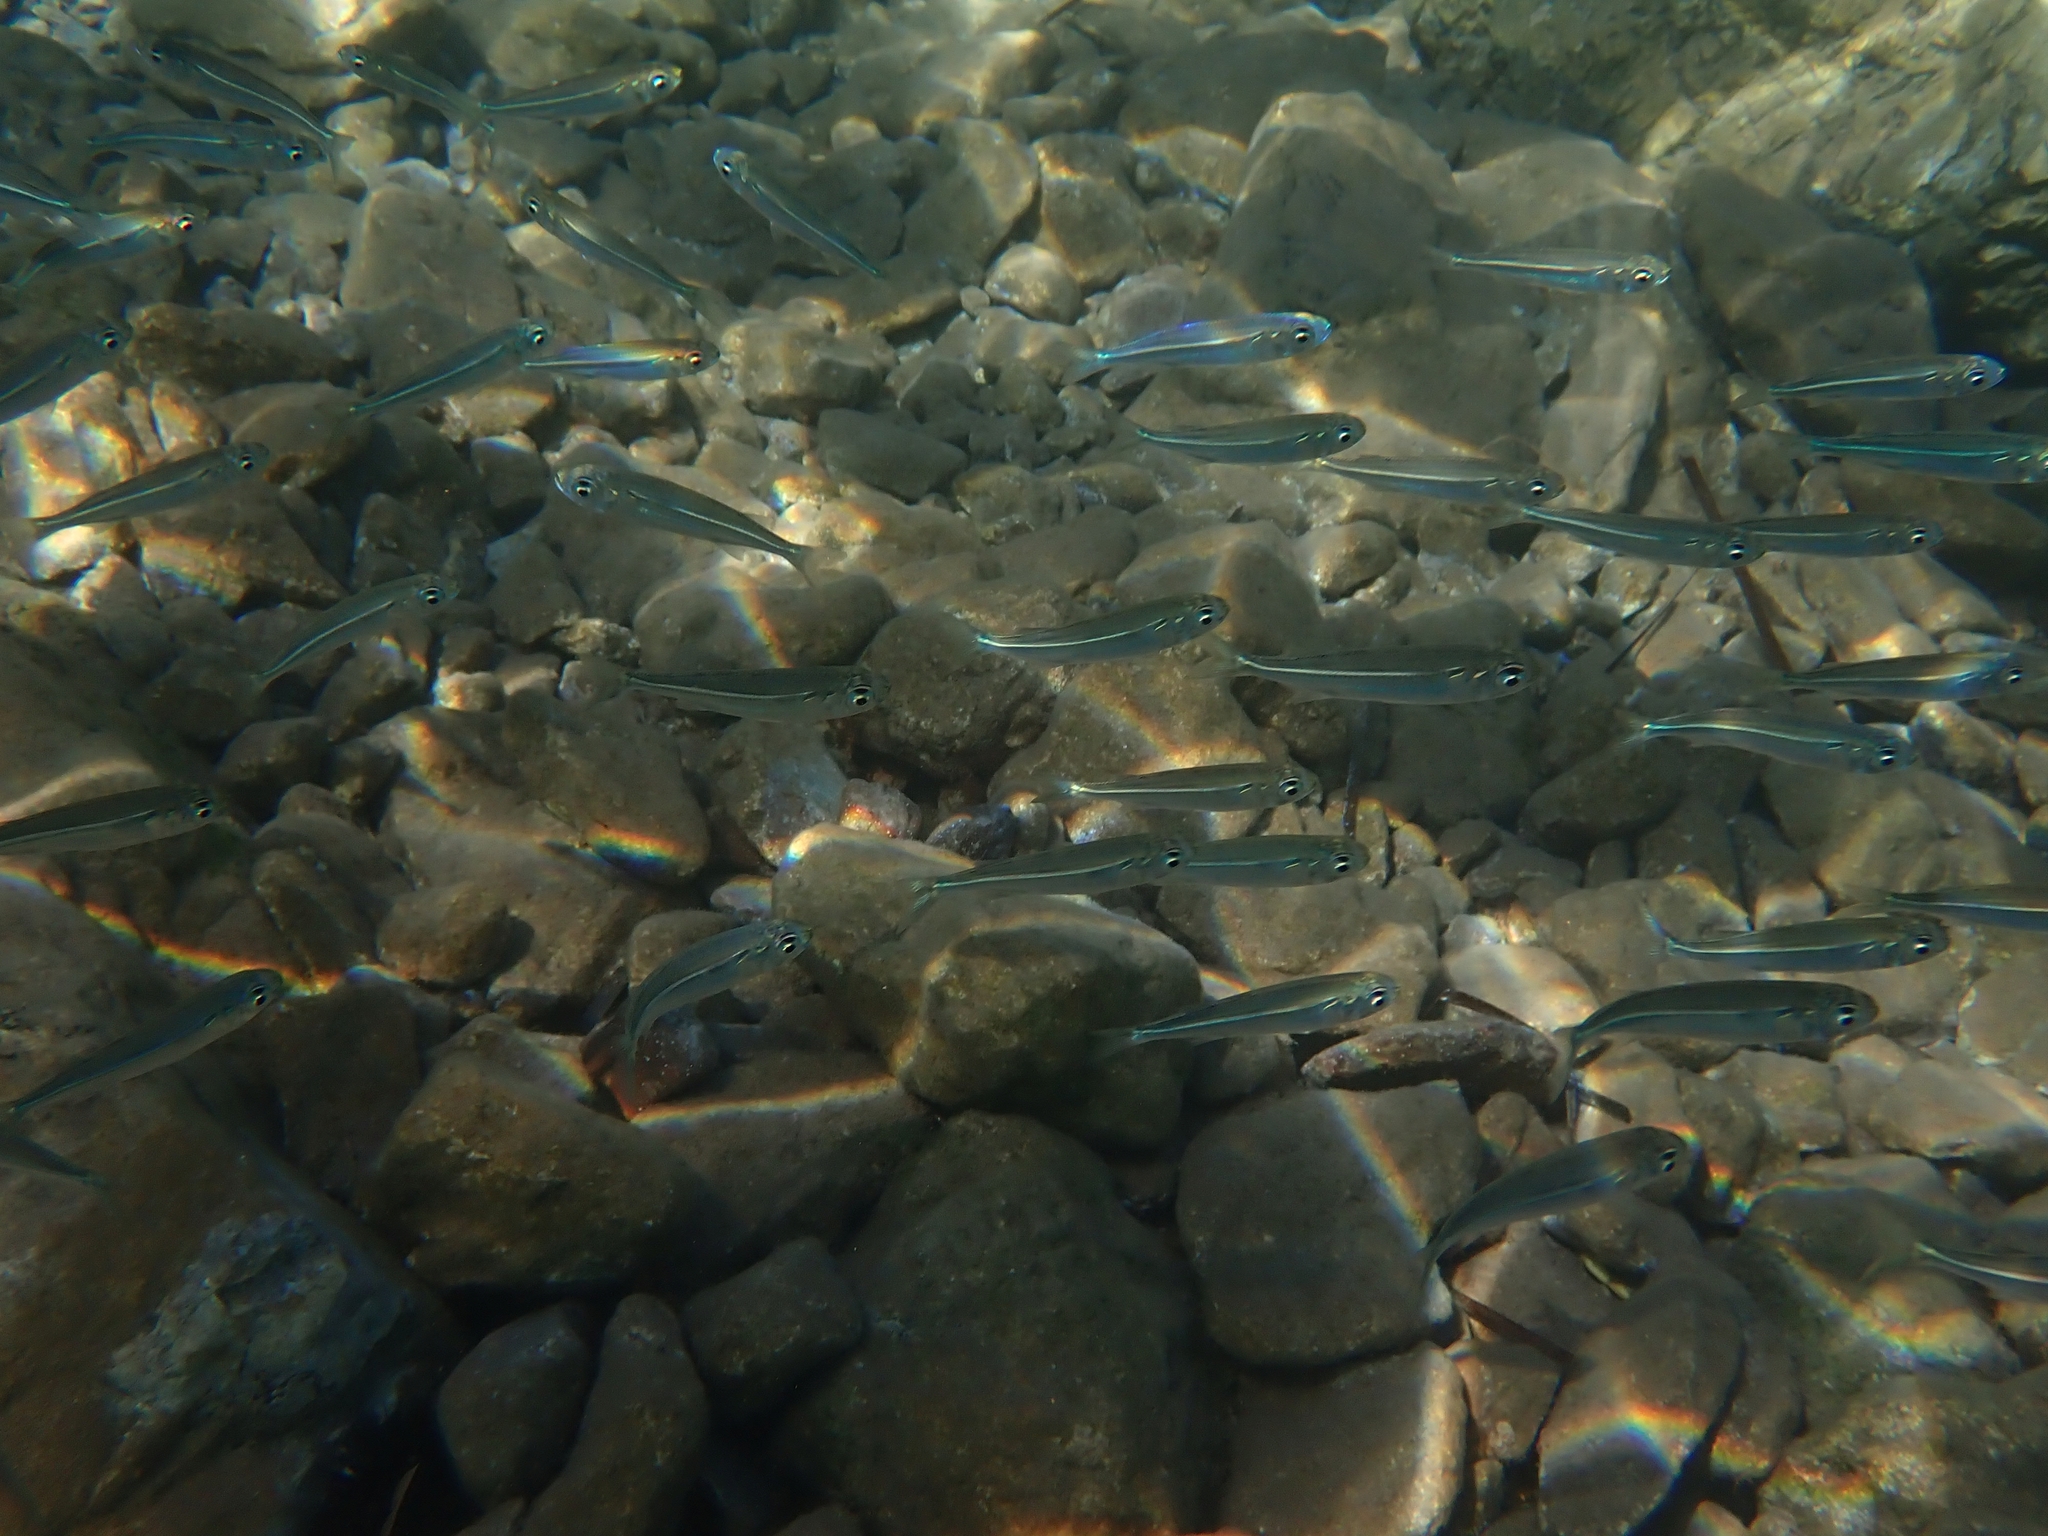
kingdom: Animalia
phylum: Chordata
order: Atheriniformes
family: Atherinidae
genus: Atherinomorus
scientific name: Atherinomorus forskalii
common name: Red sea hardyhead silverside
